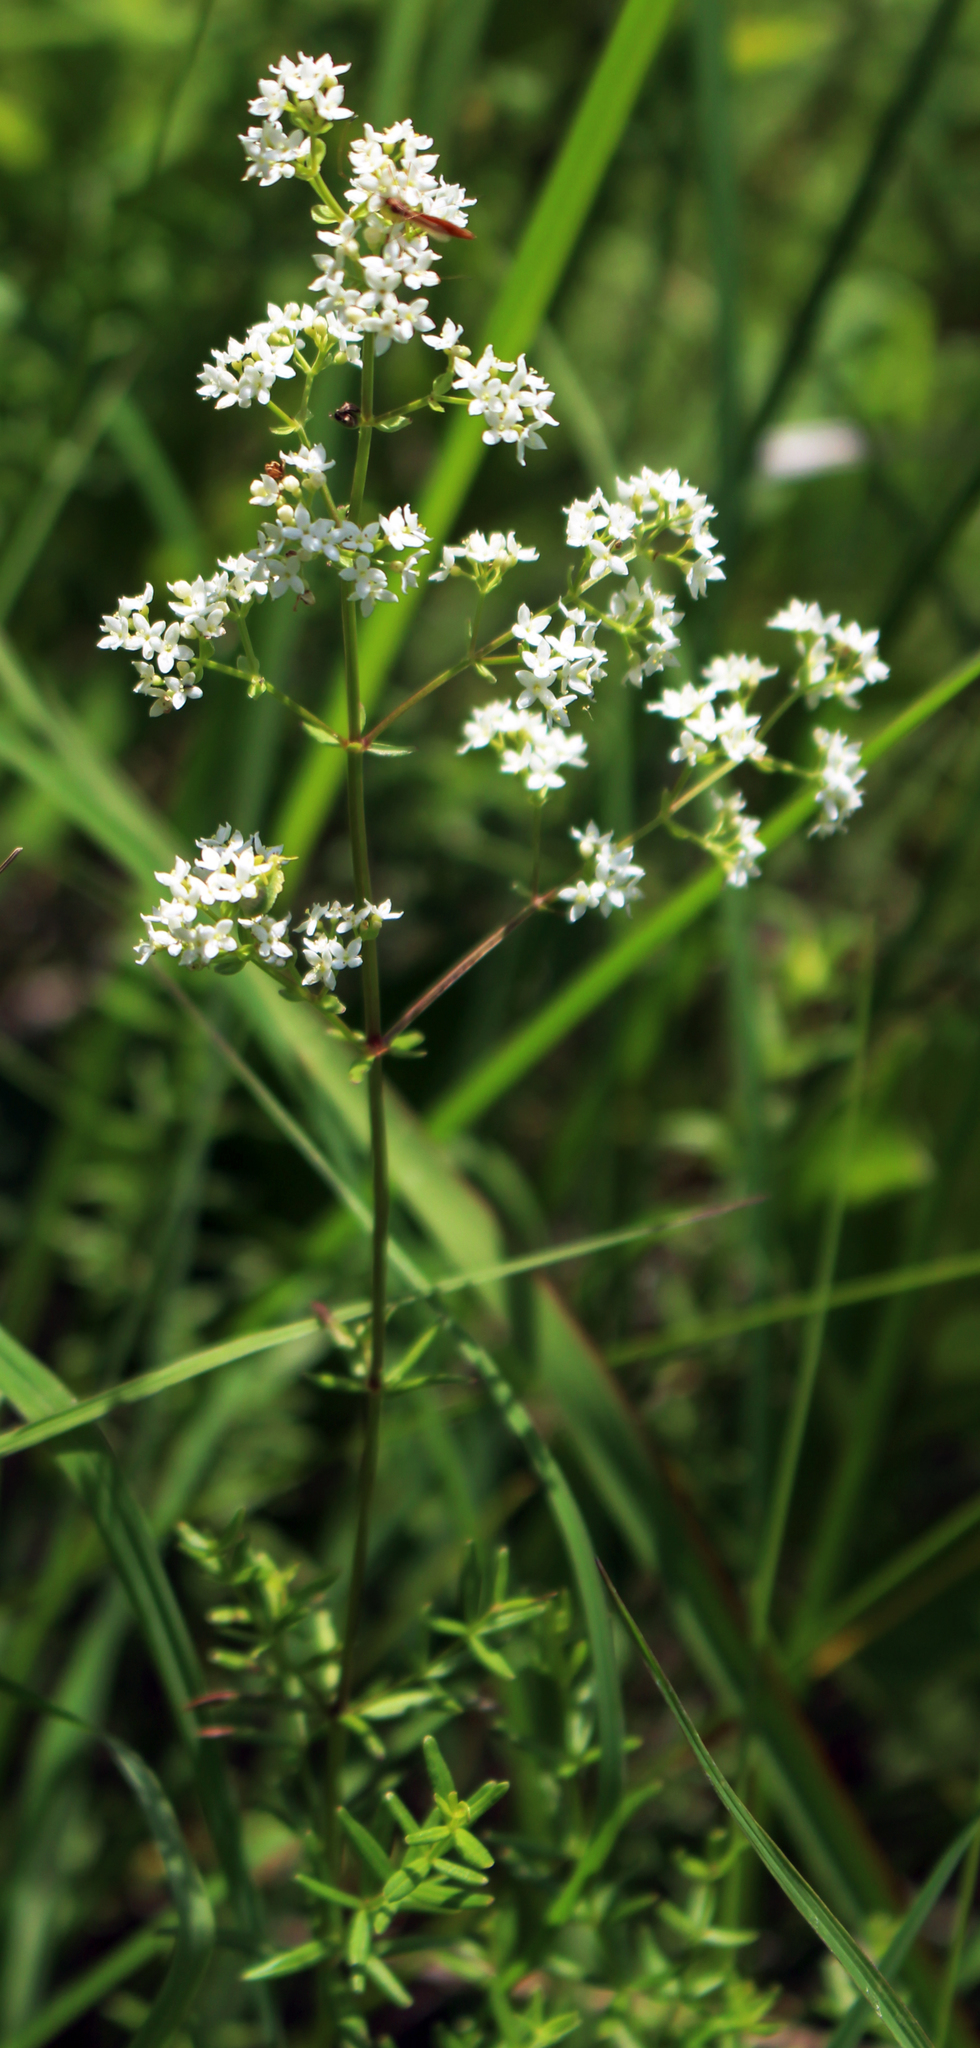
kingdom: Plantae
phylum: Tracheophyta
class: Magnoliopsida
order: Gentianales
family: Rubiaceae
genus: Galium
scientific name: Galium boreale
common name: Northern bedstraw
